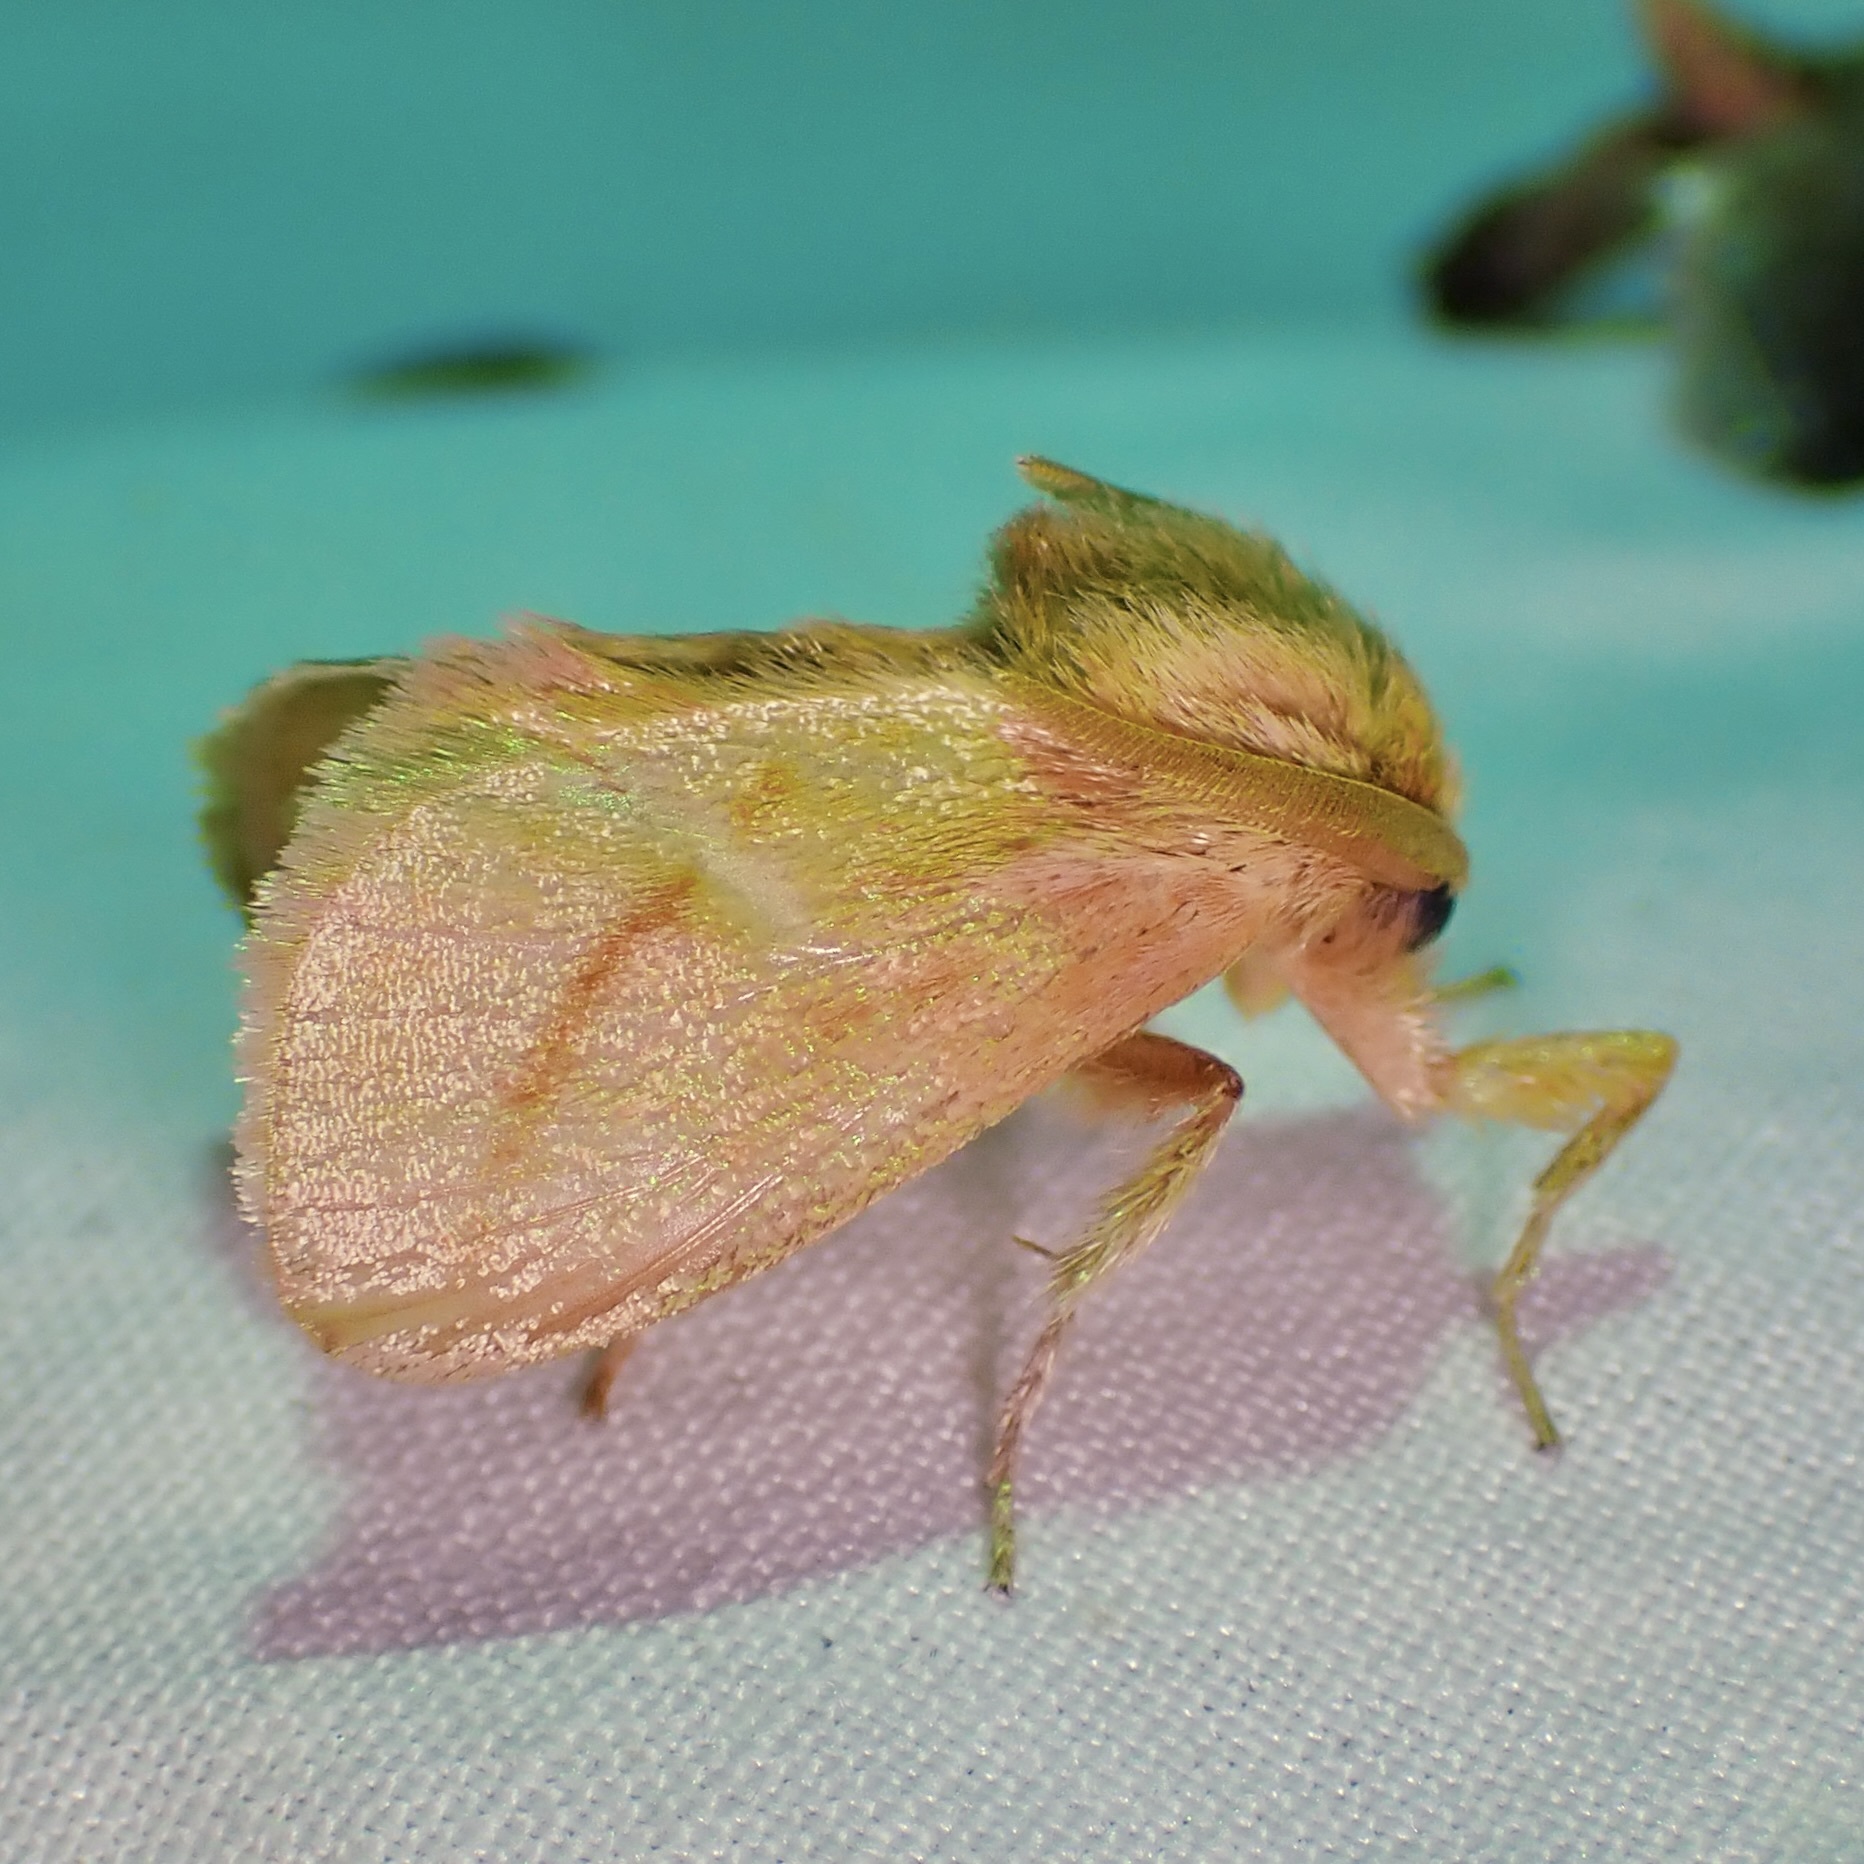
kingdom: Animalia
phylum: Arthropoda
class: Insecta
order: Lepidoptera
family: Limacodidae
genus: Perola
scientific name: Perola clara
